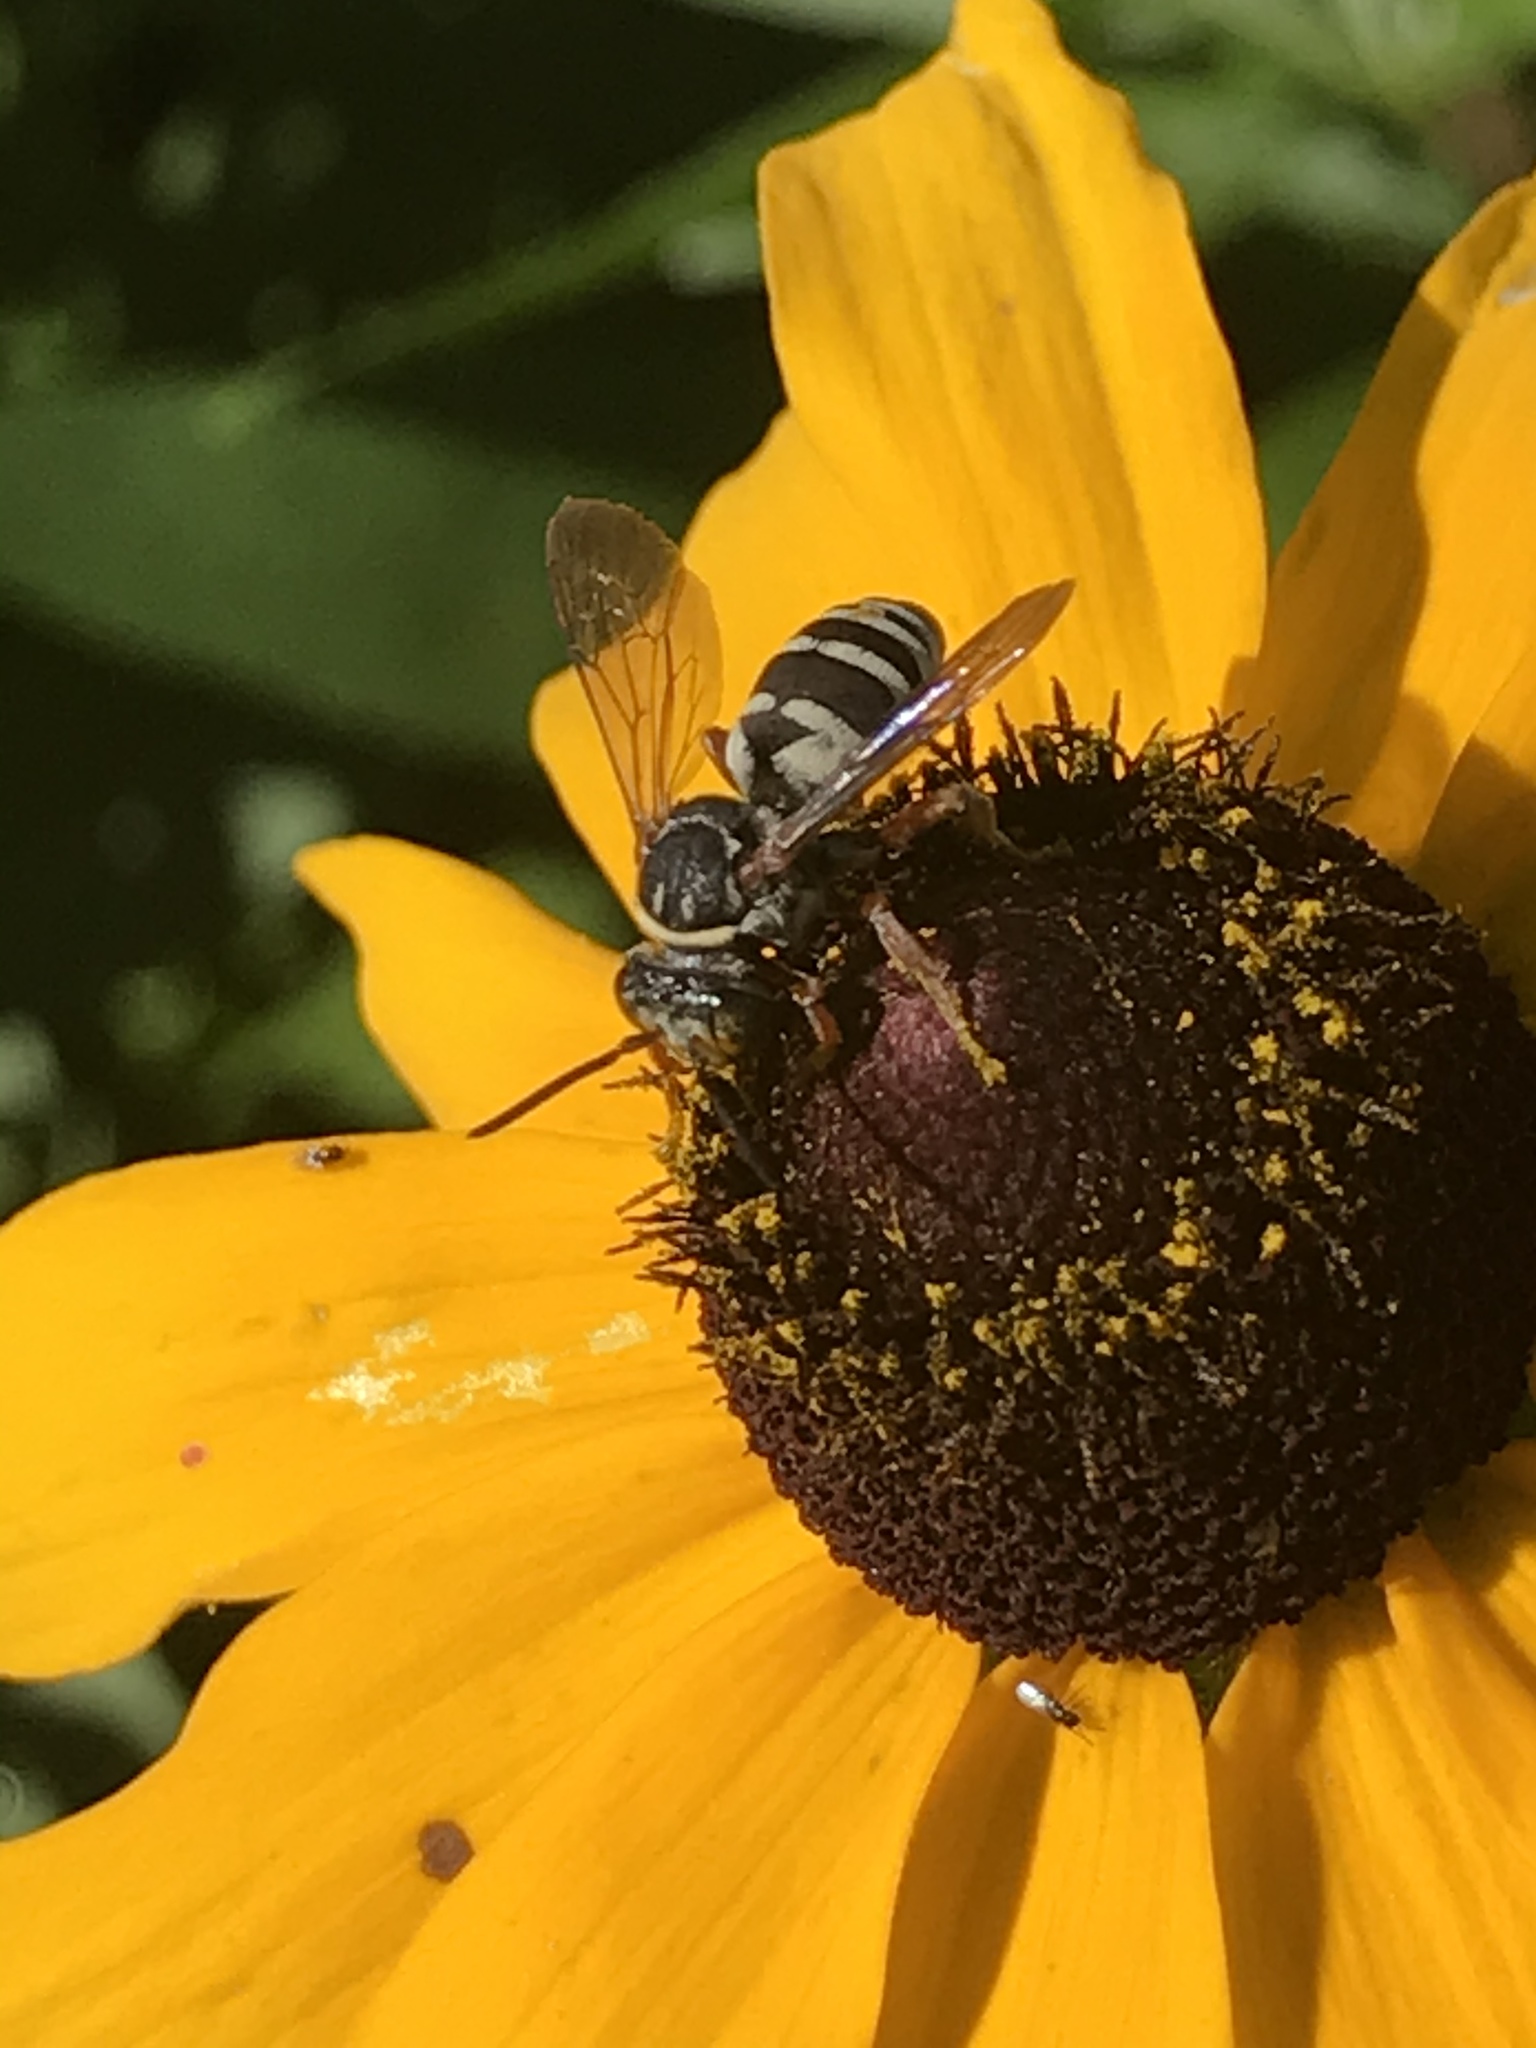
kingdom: Animalia
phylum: Arthropoda
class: Insecta
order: Hymenoptera
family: Apidae
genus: Triepeolus
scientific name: Triepeolus lunatus
